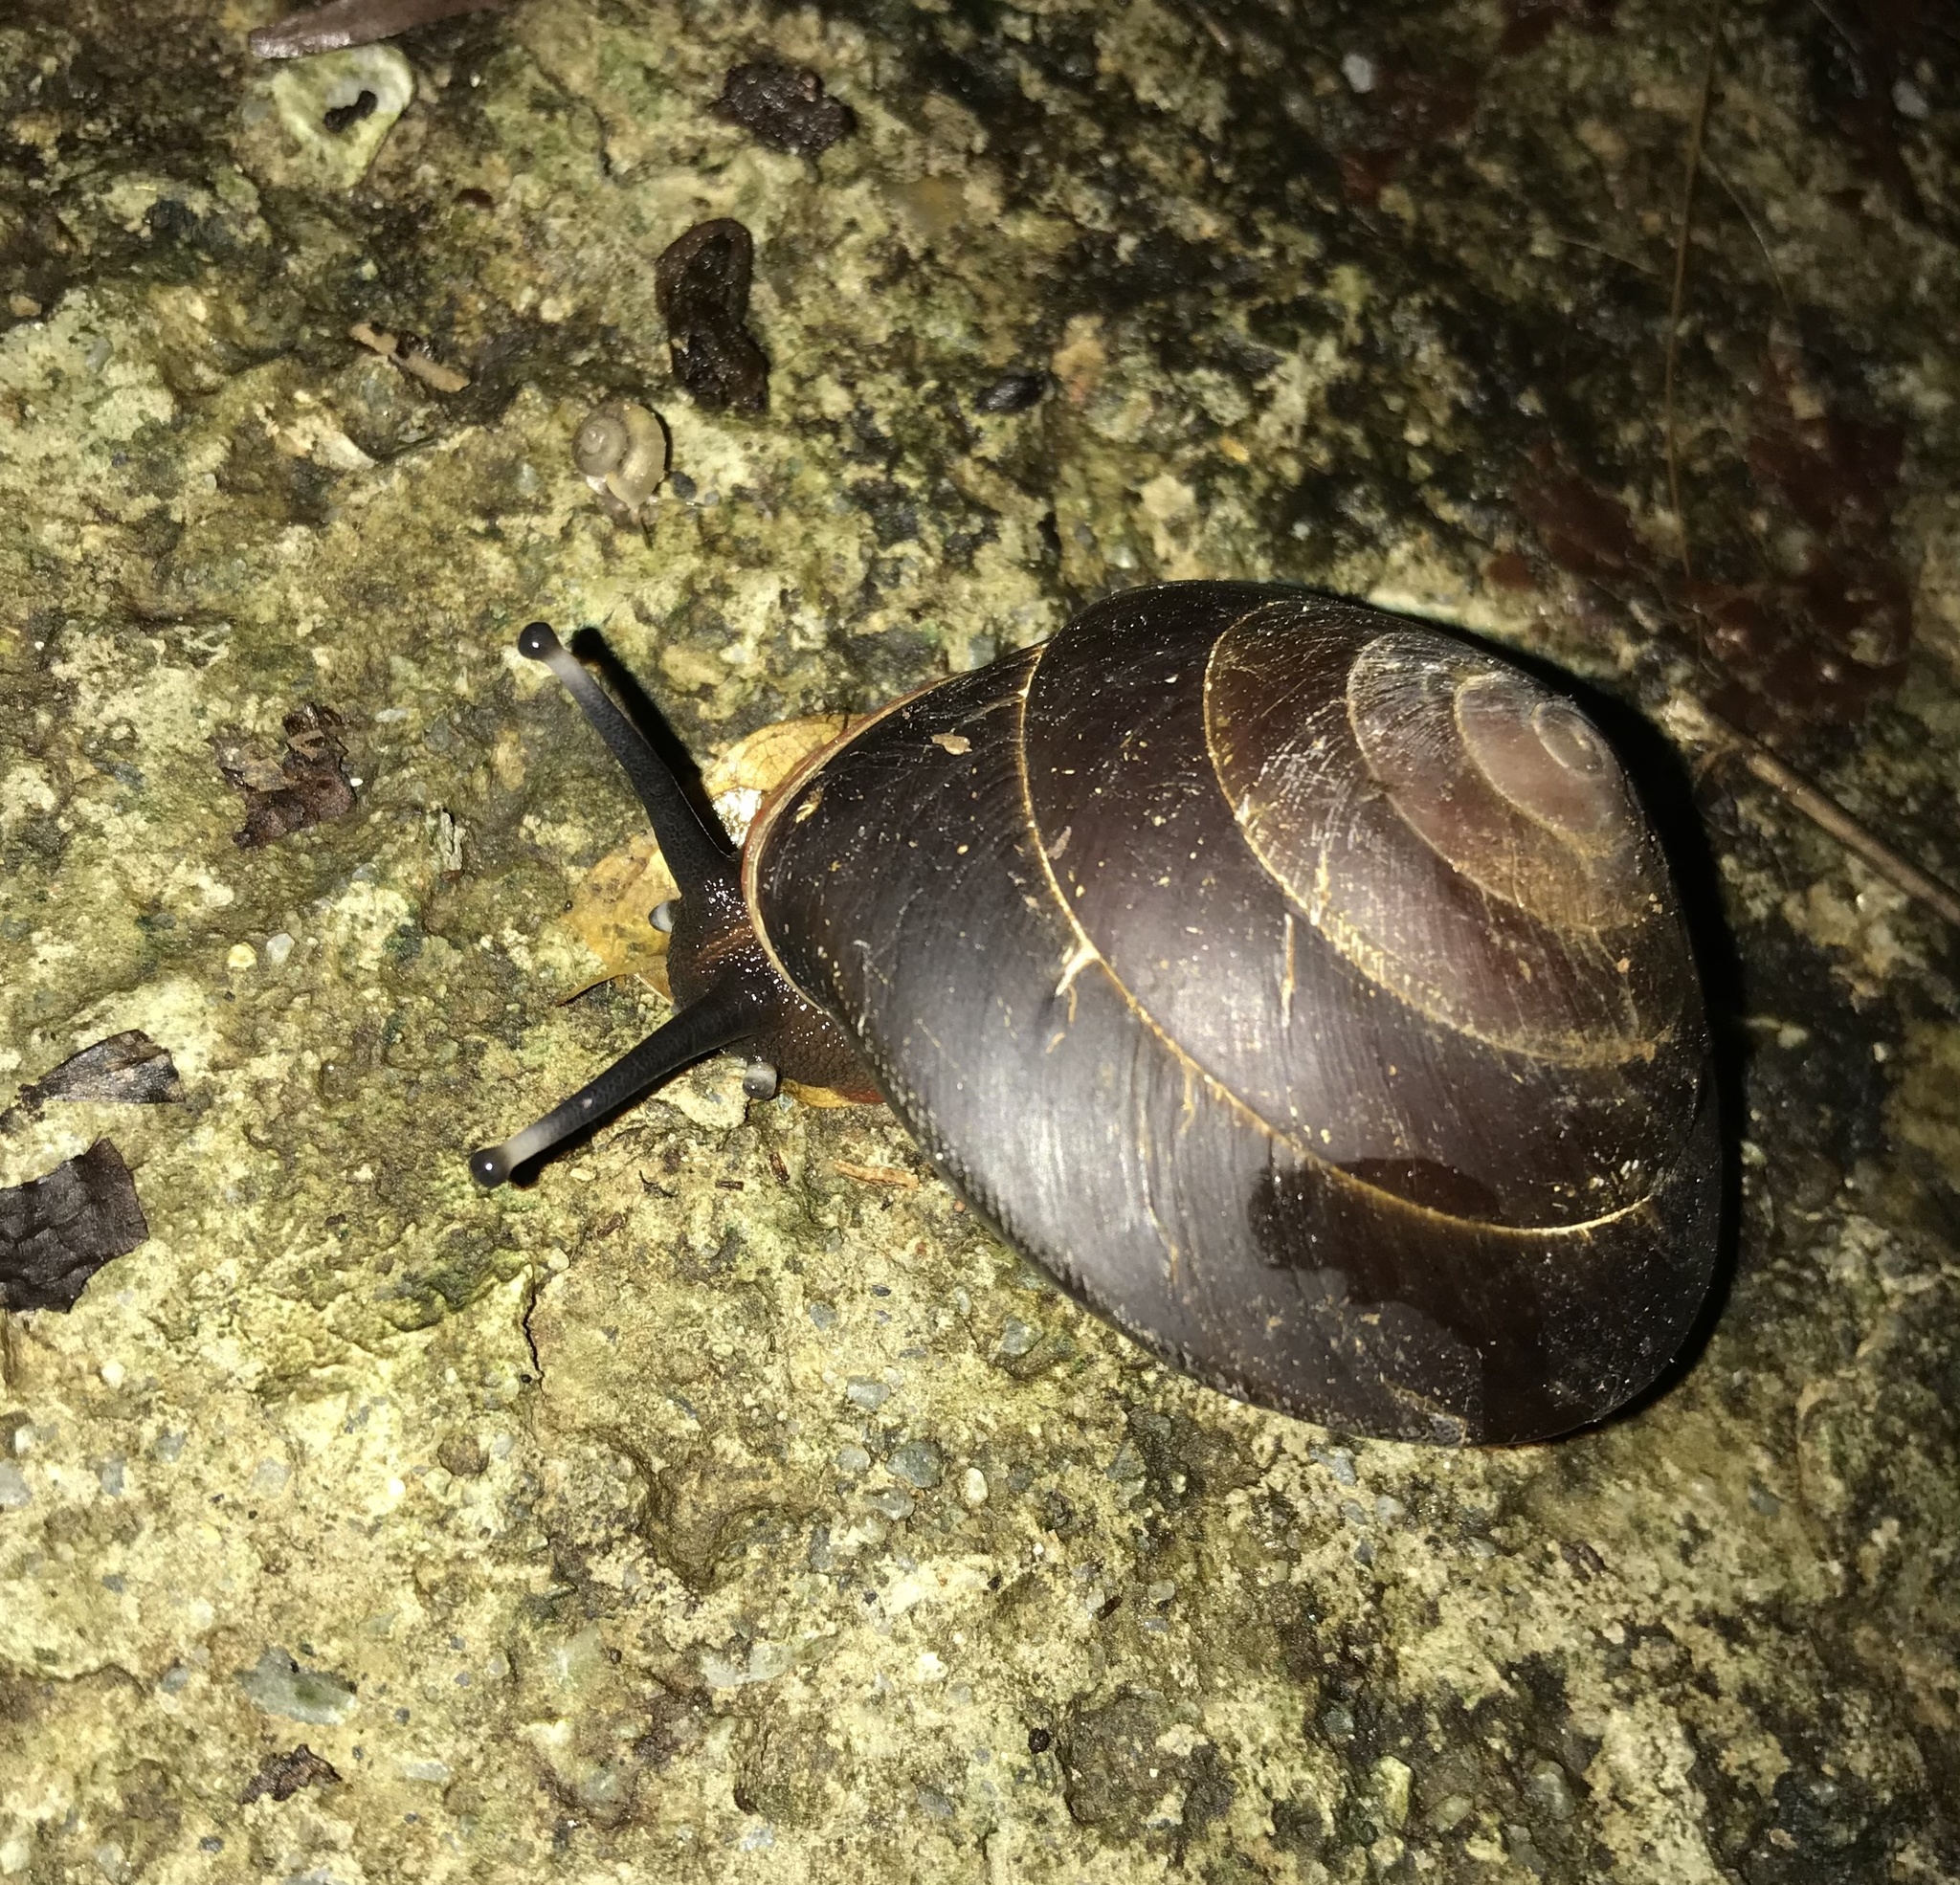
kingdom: Animalia
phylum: Mollusca
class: Gastropoda
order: Stylommatophora
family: Solaropsidae
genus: Caracolus
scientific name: Caracolus excellens
